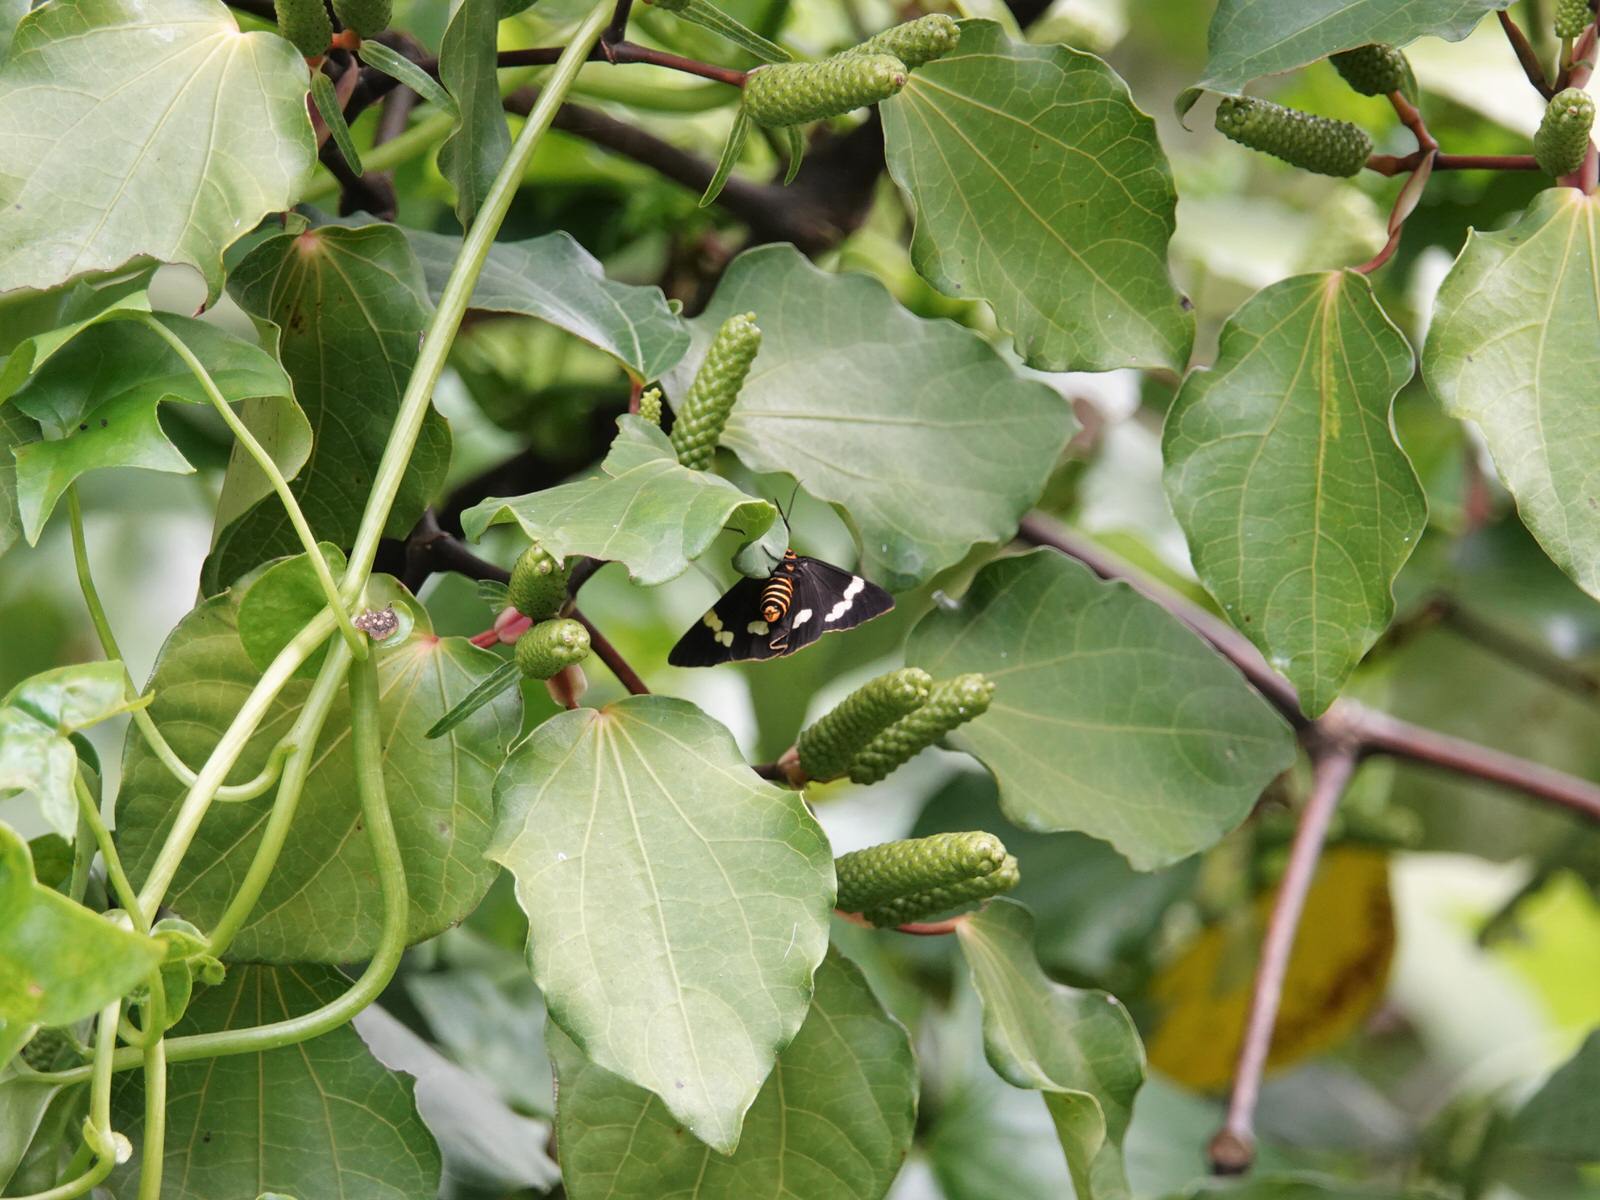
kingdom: Animalia
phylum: Arthropoda
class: Insecta
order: Lepidoptera
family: Erebidae
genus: Nyctemera
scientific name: Nyctemera annulatum
